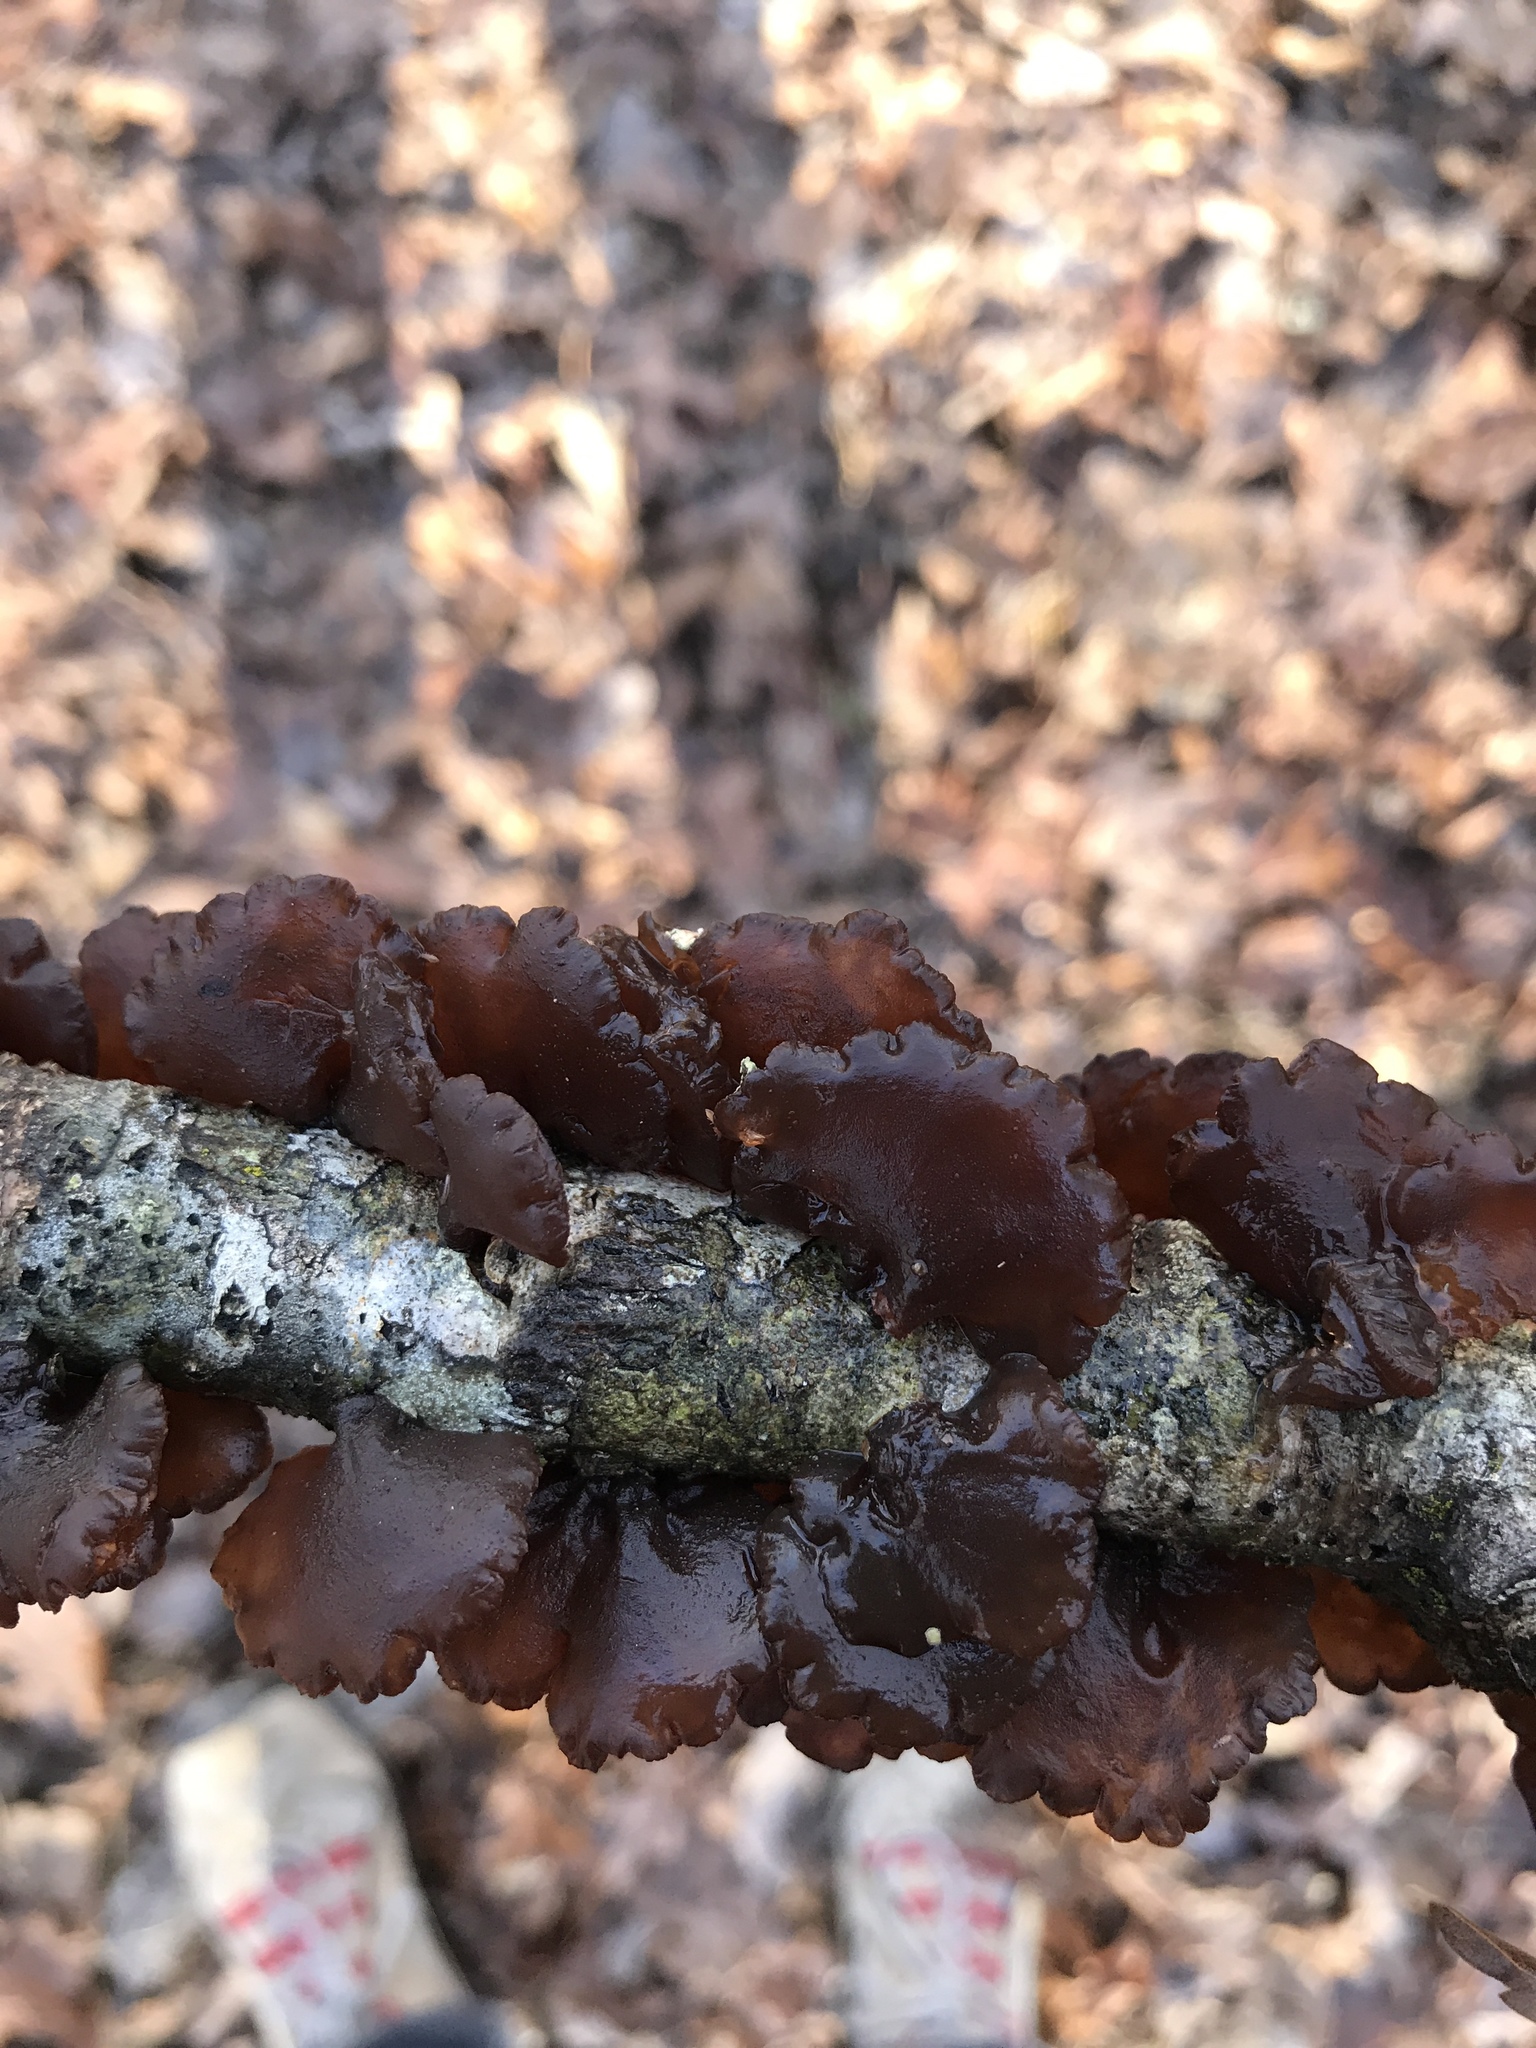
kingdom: Fungi
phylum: Basidiomycota
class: Agaricomycetes
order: Auriculariales
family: Auriculariaceae
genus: Exidia
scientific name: Exidia
